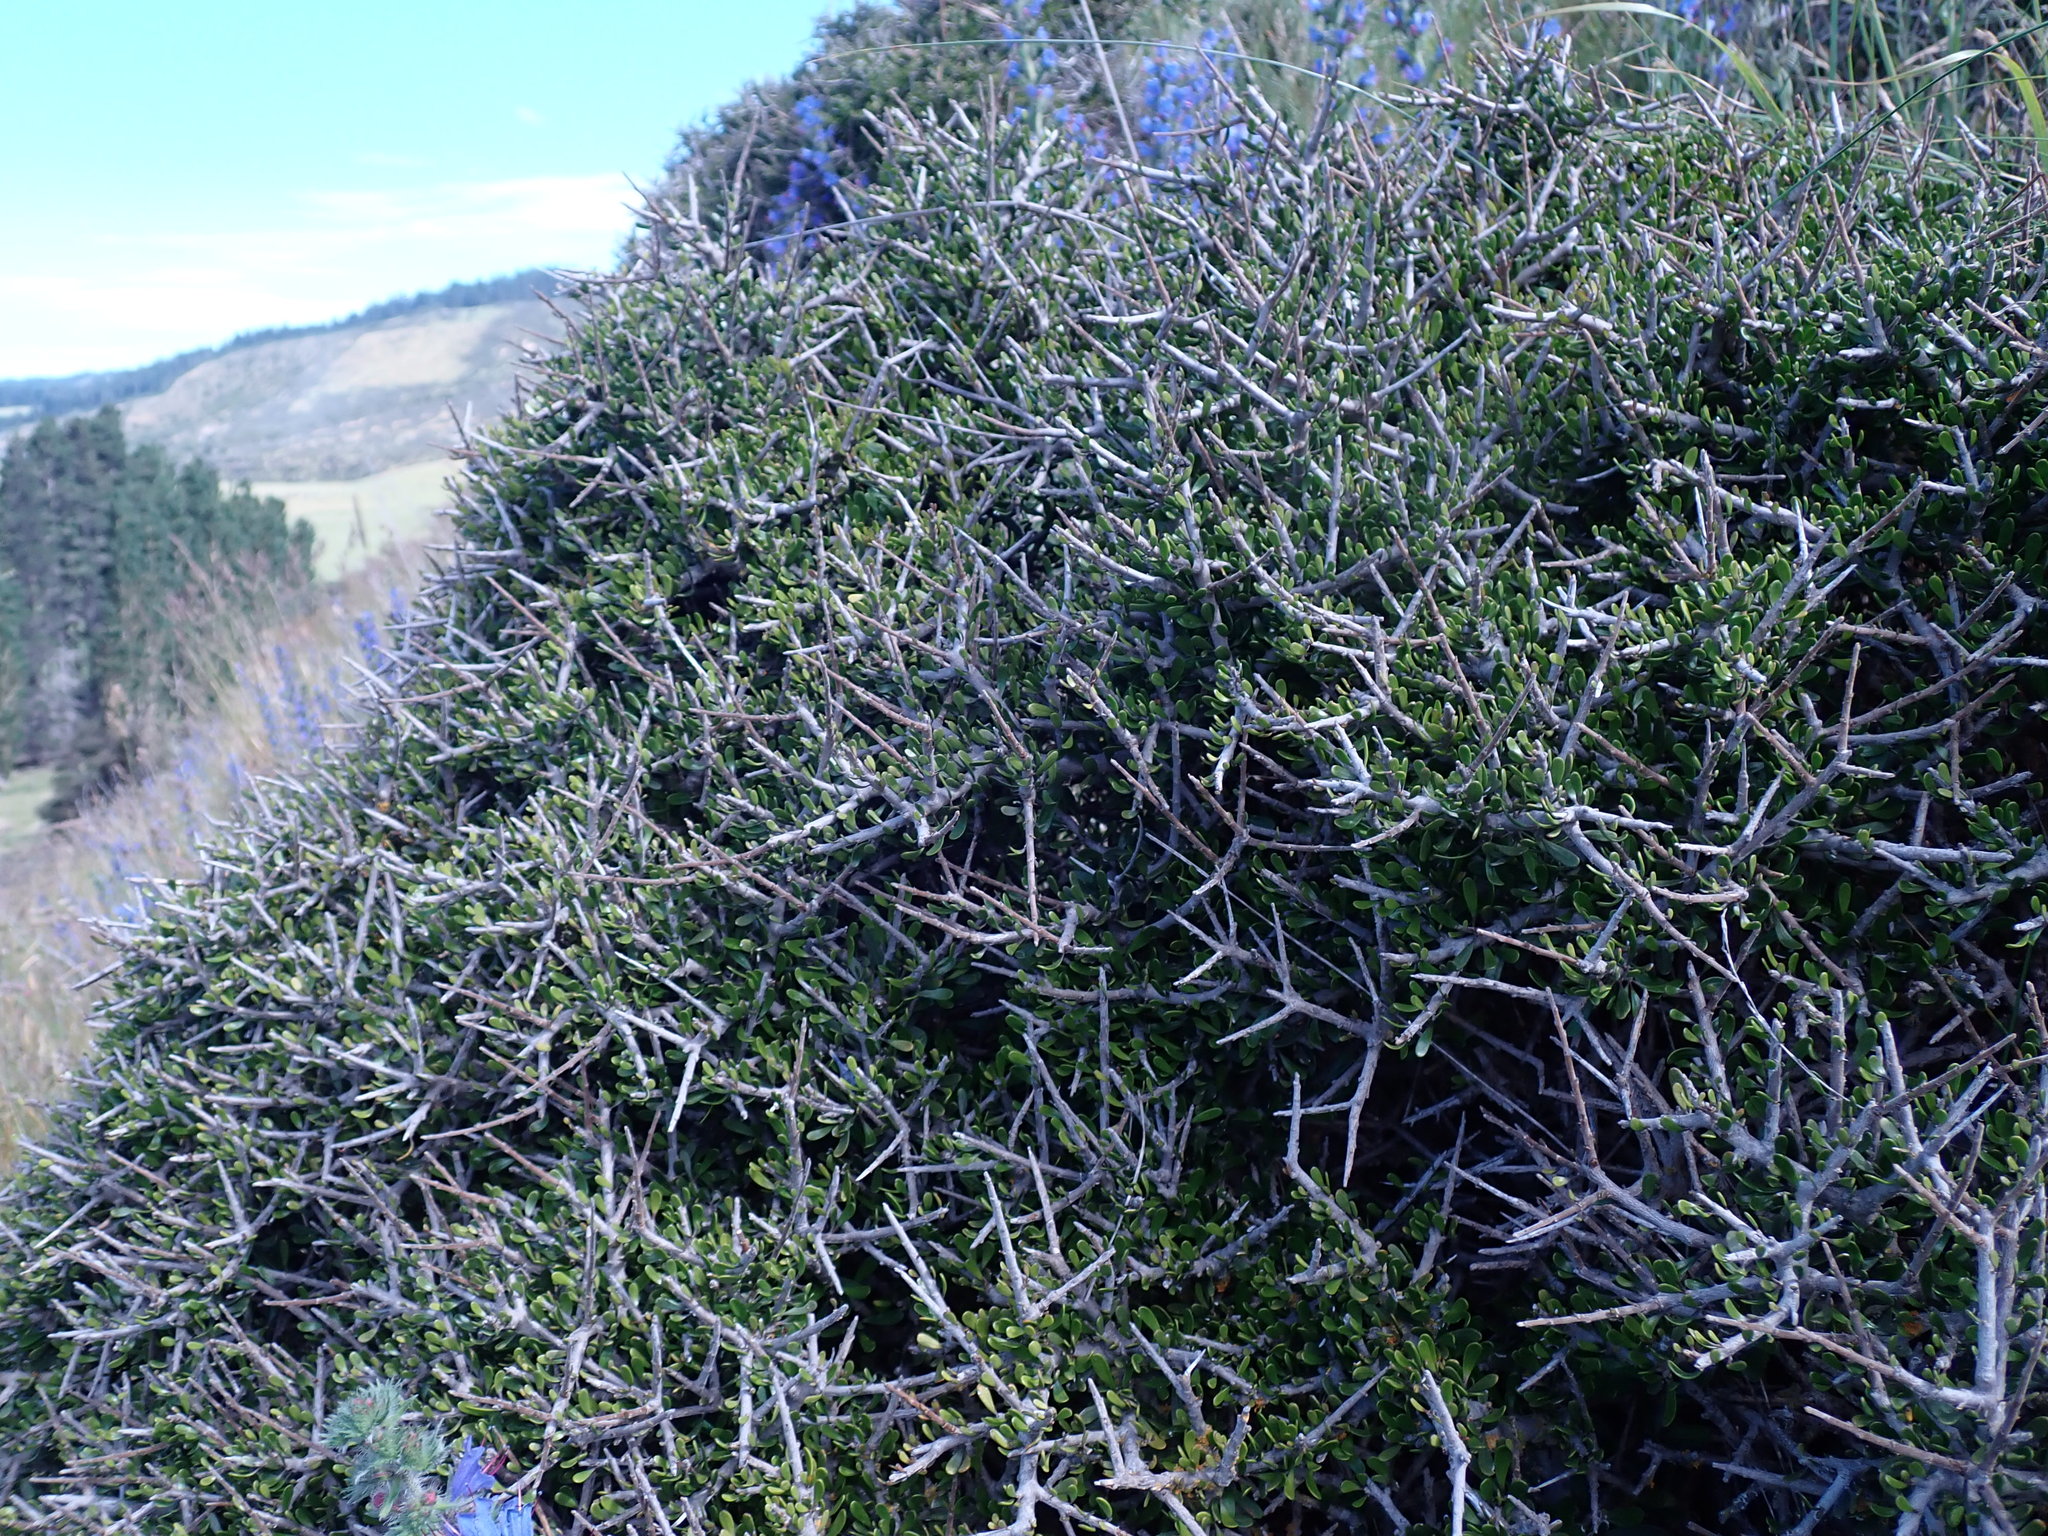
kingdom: Plantae
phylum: Tracheophyta
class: Magnoliopsida
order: Malpighiales
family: Violaceae
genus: Melicytus
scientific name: Melicytus alpinus
